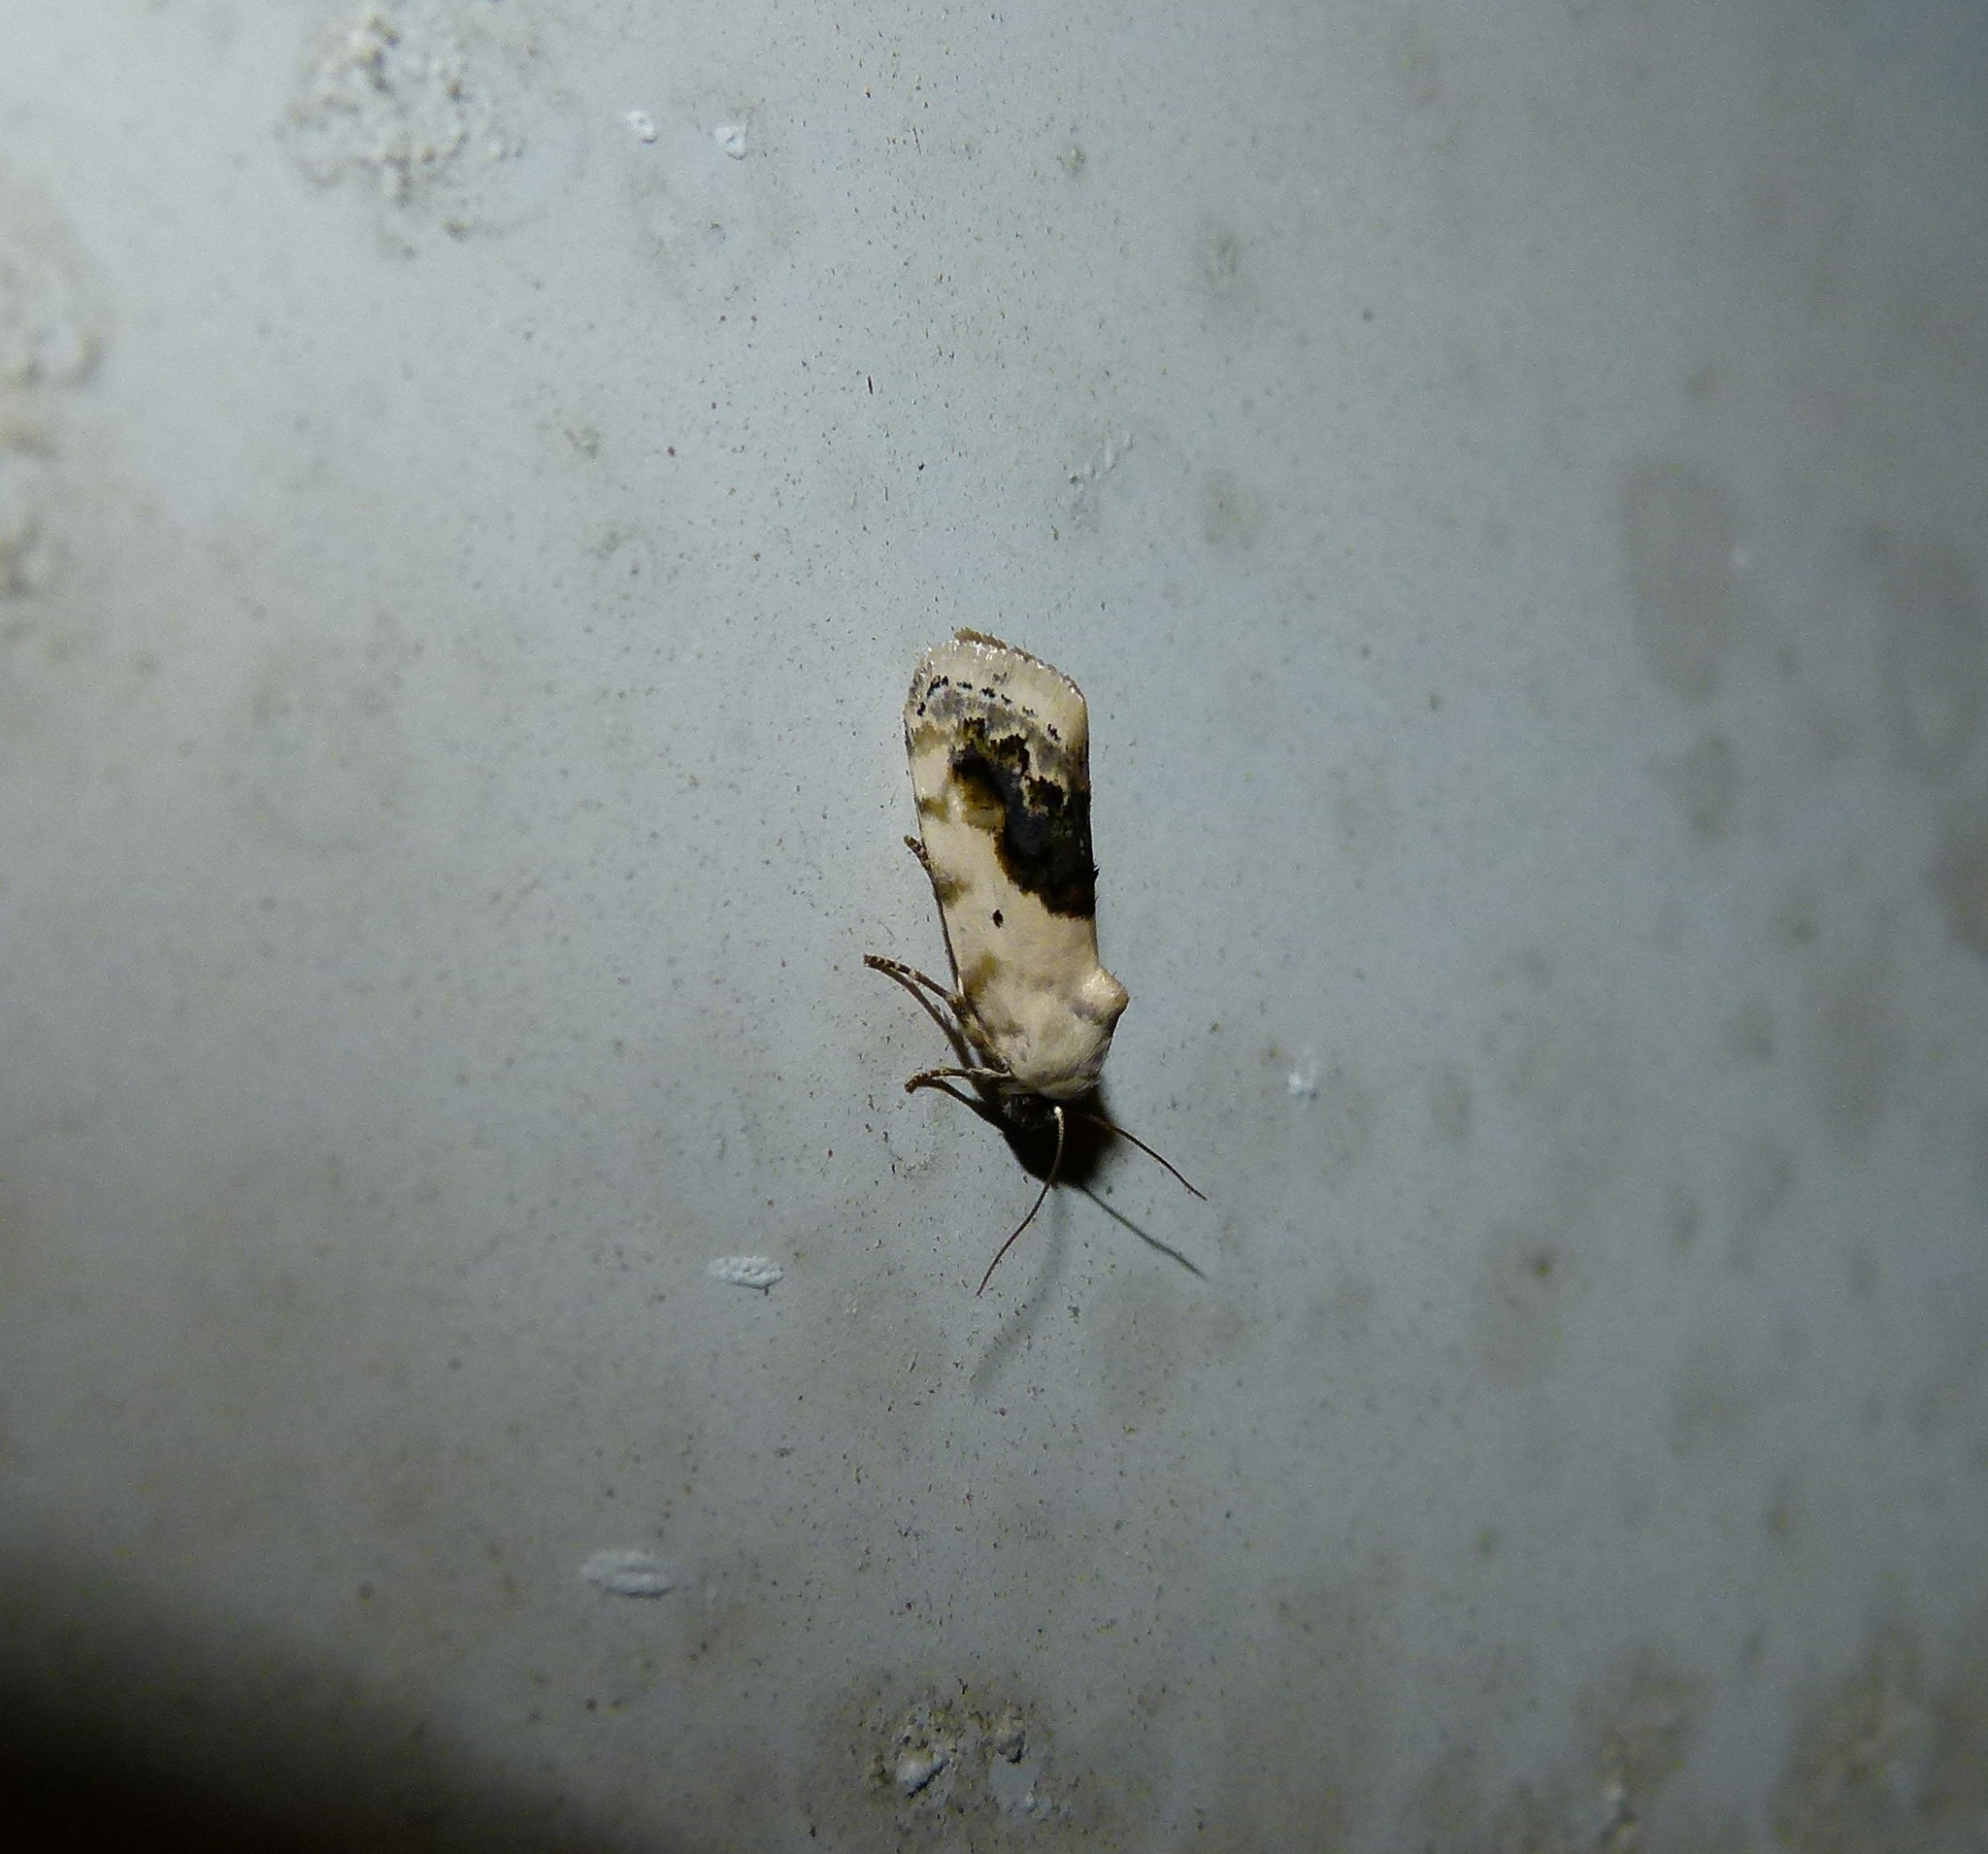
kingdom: Animalia
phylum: Arthropoda
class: Insecta
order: Lepidoptera
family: Noctuidae
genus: Acontia
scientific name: Acontia erastrioides
